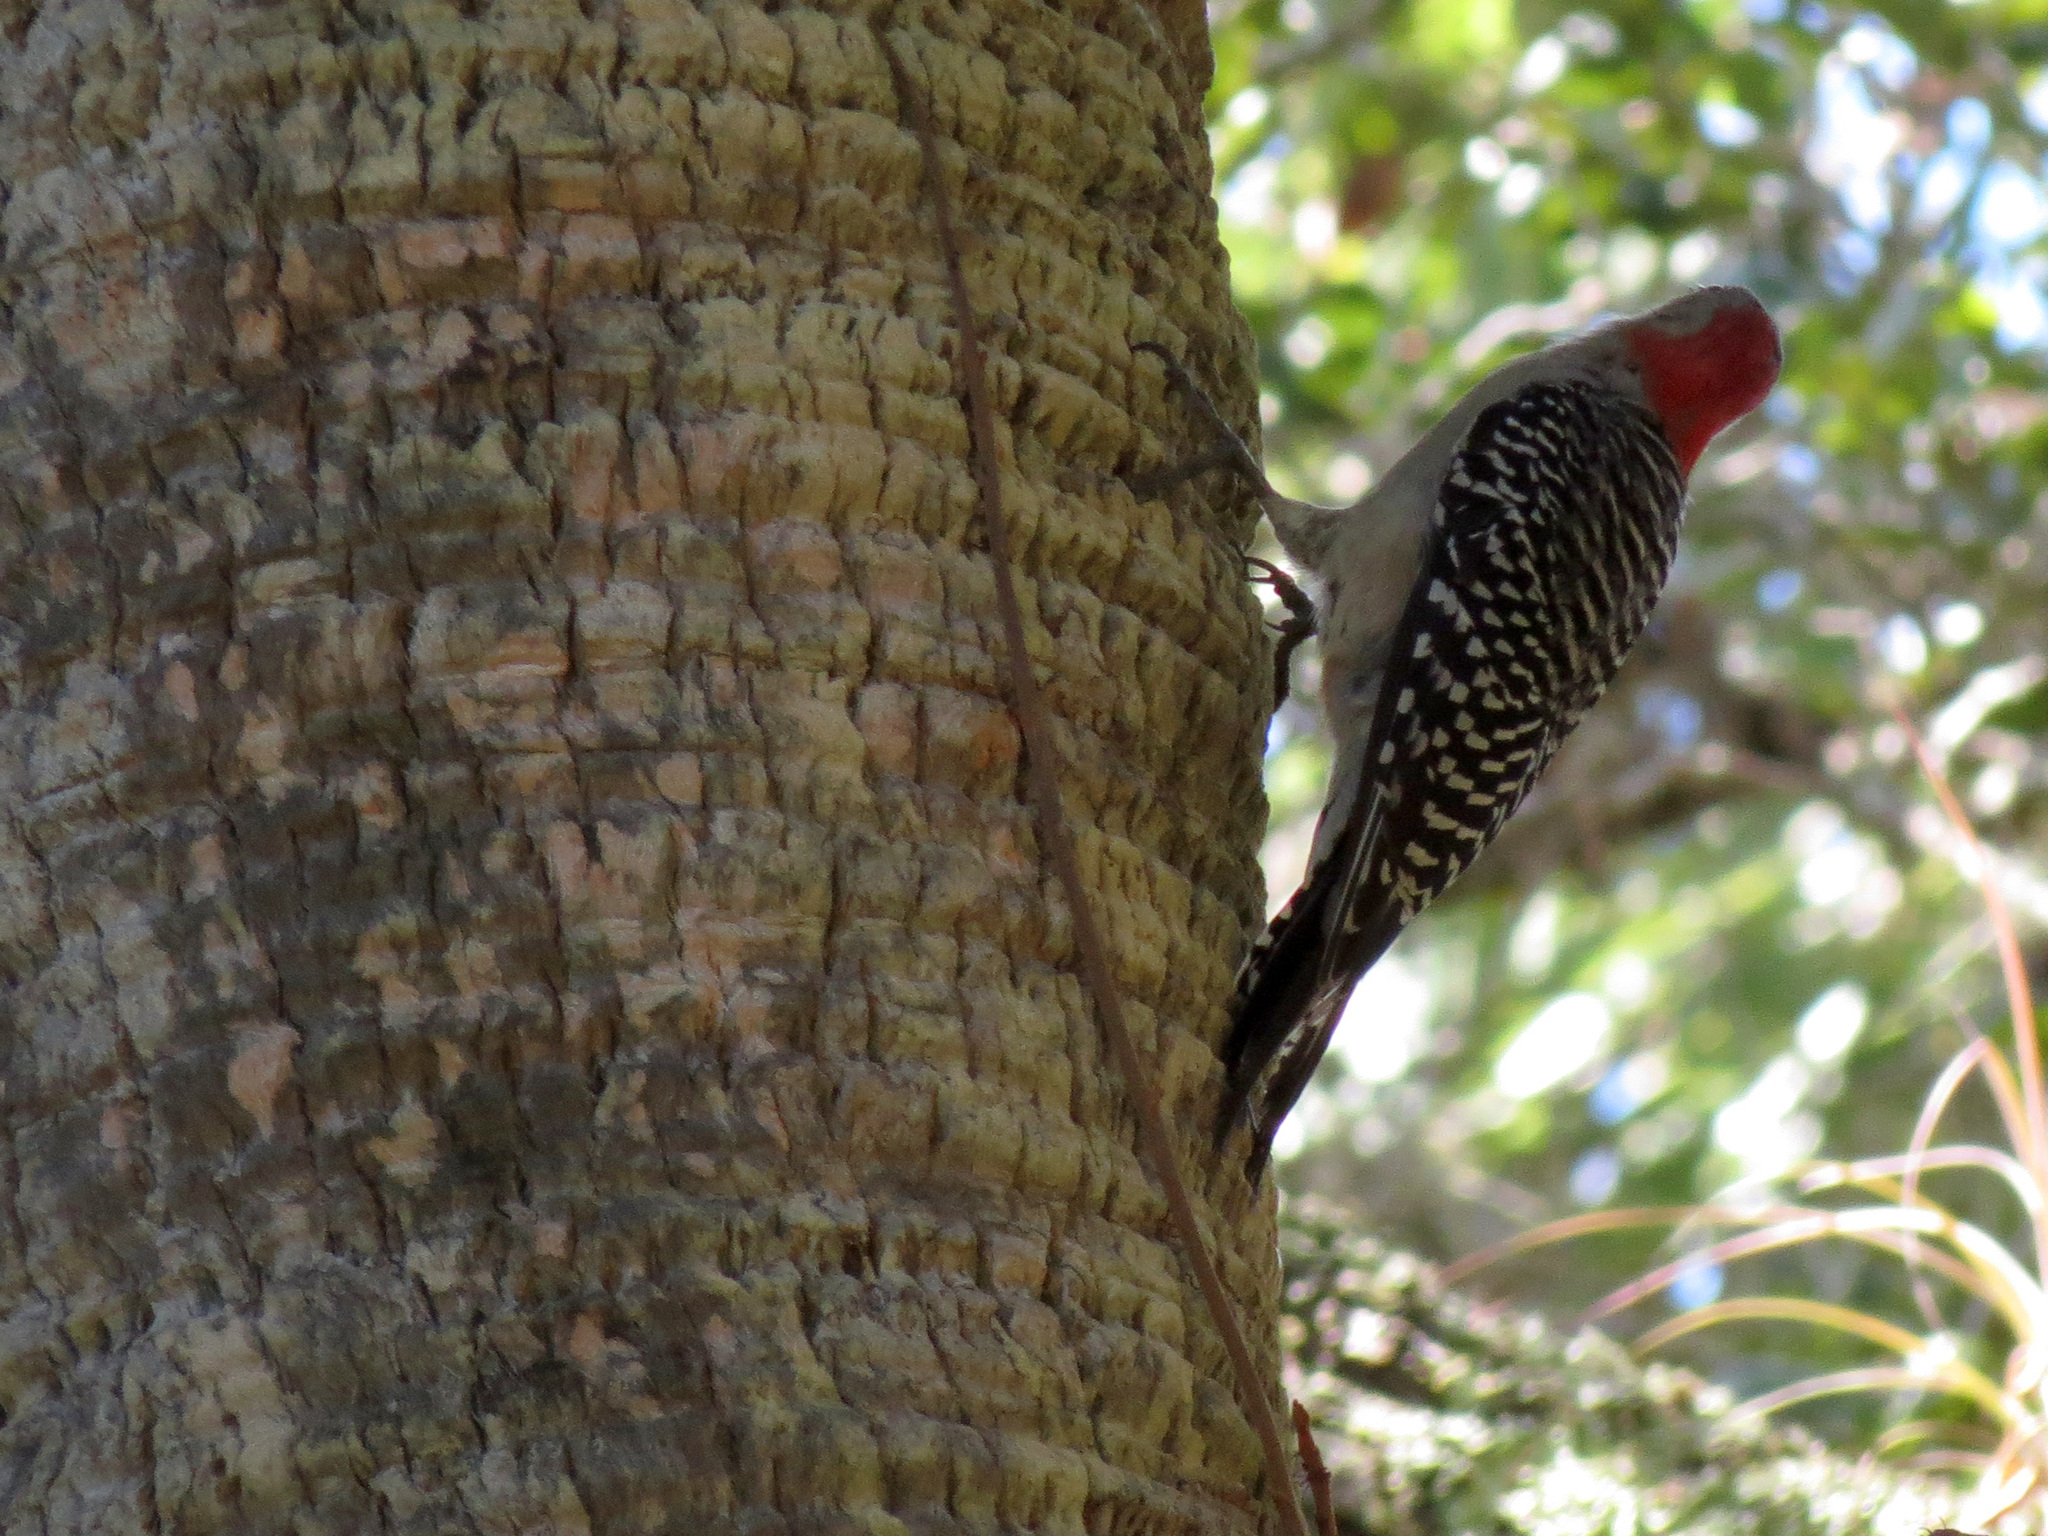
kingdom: Animalia
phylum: Chordata
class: Aves
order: Piciformes
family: Picidae
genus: Melanerpes
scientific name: Melanerpes carolinus
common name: Red-bellied woodpecker
